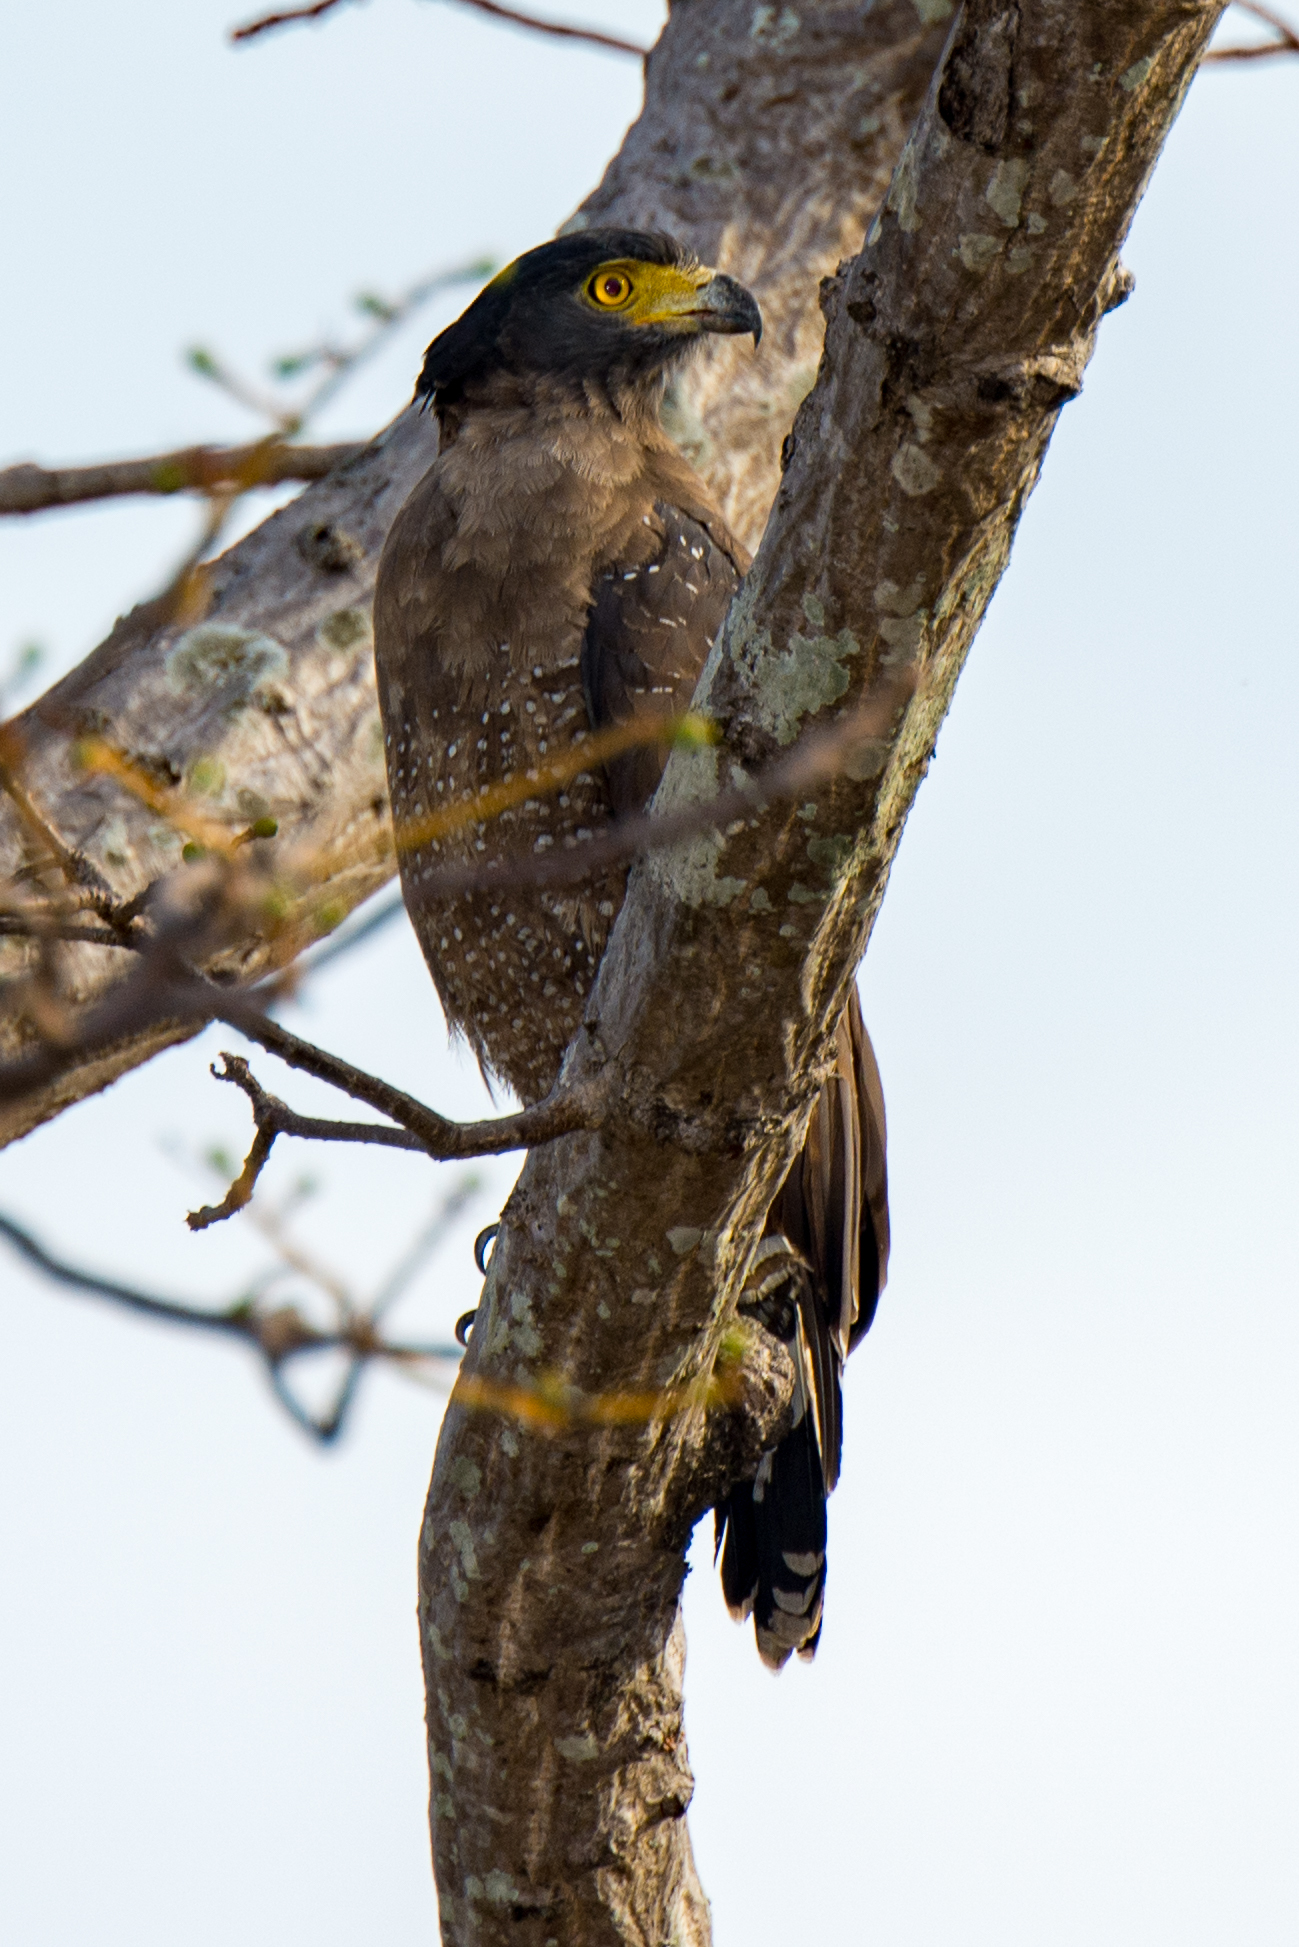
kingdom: Animalia
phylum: Chordata
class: Aves
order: Accipitriformes
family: Accipitridae
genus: Spilornis
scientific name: Spilornis cheela
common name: Crested serpent eagle
